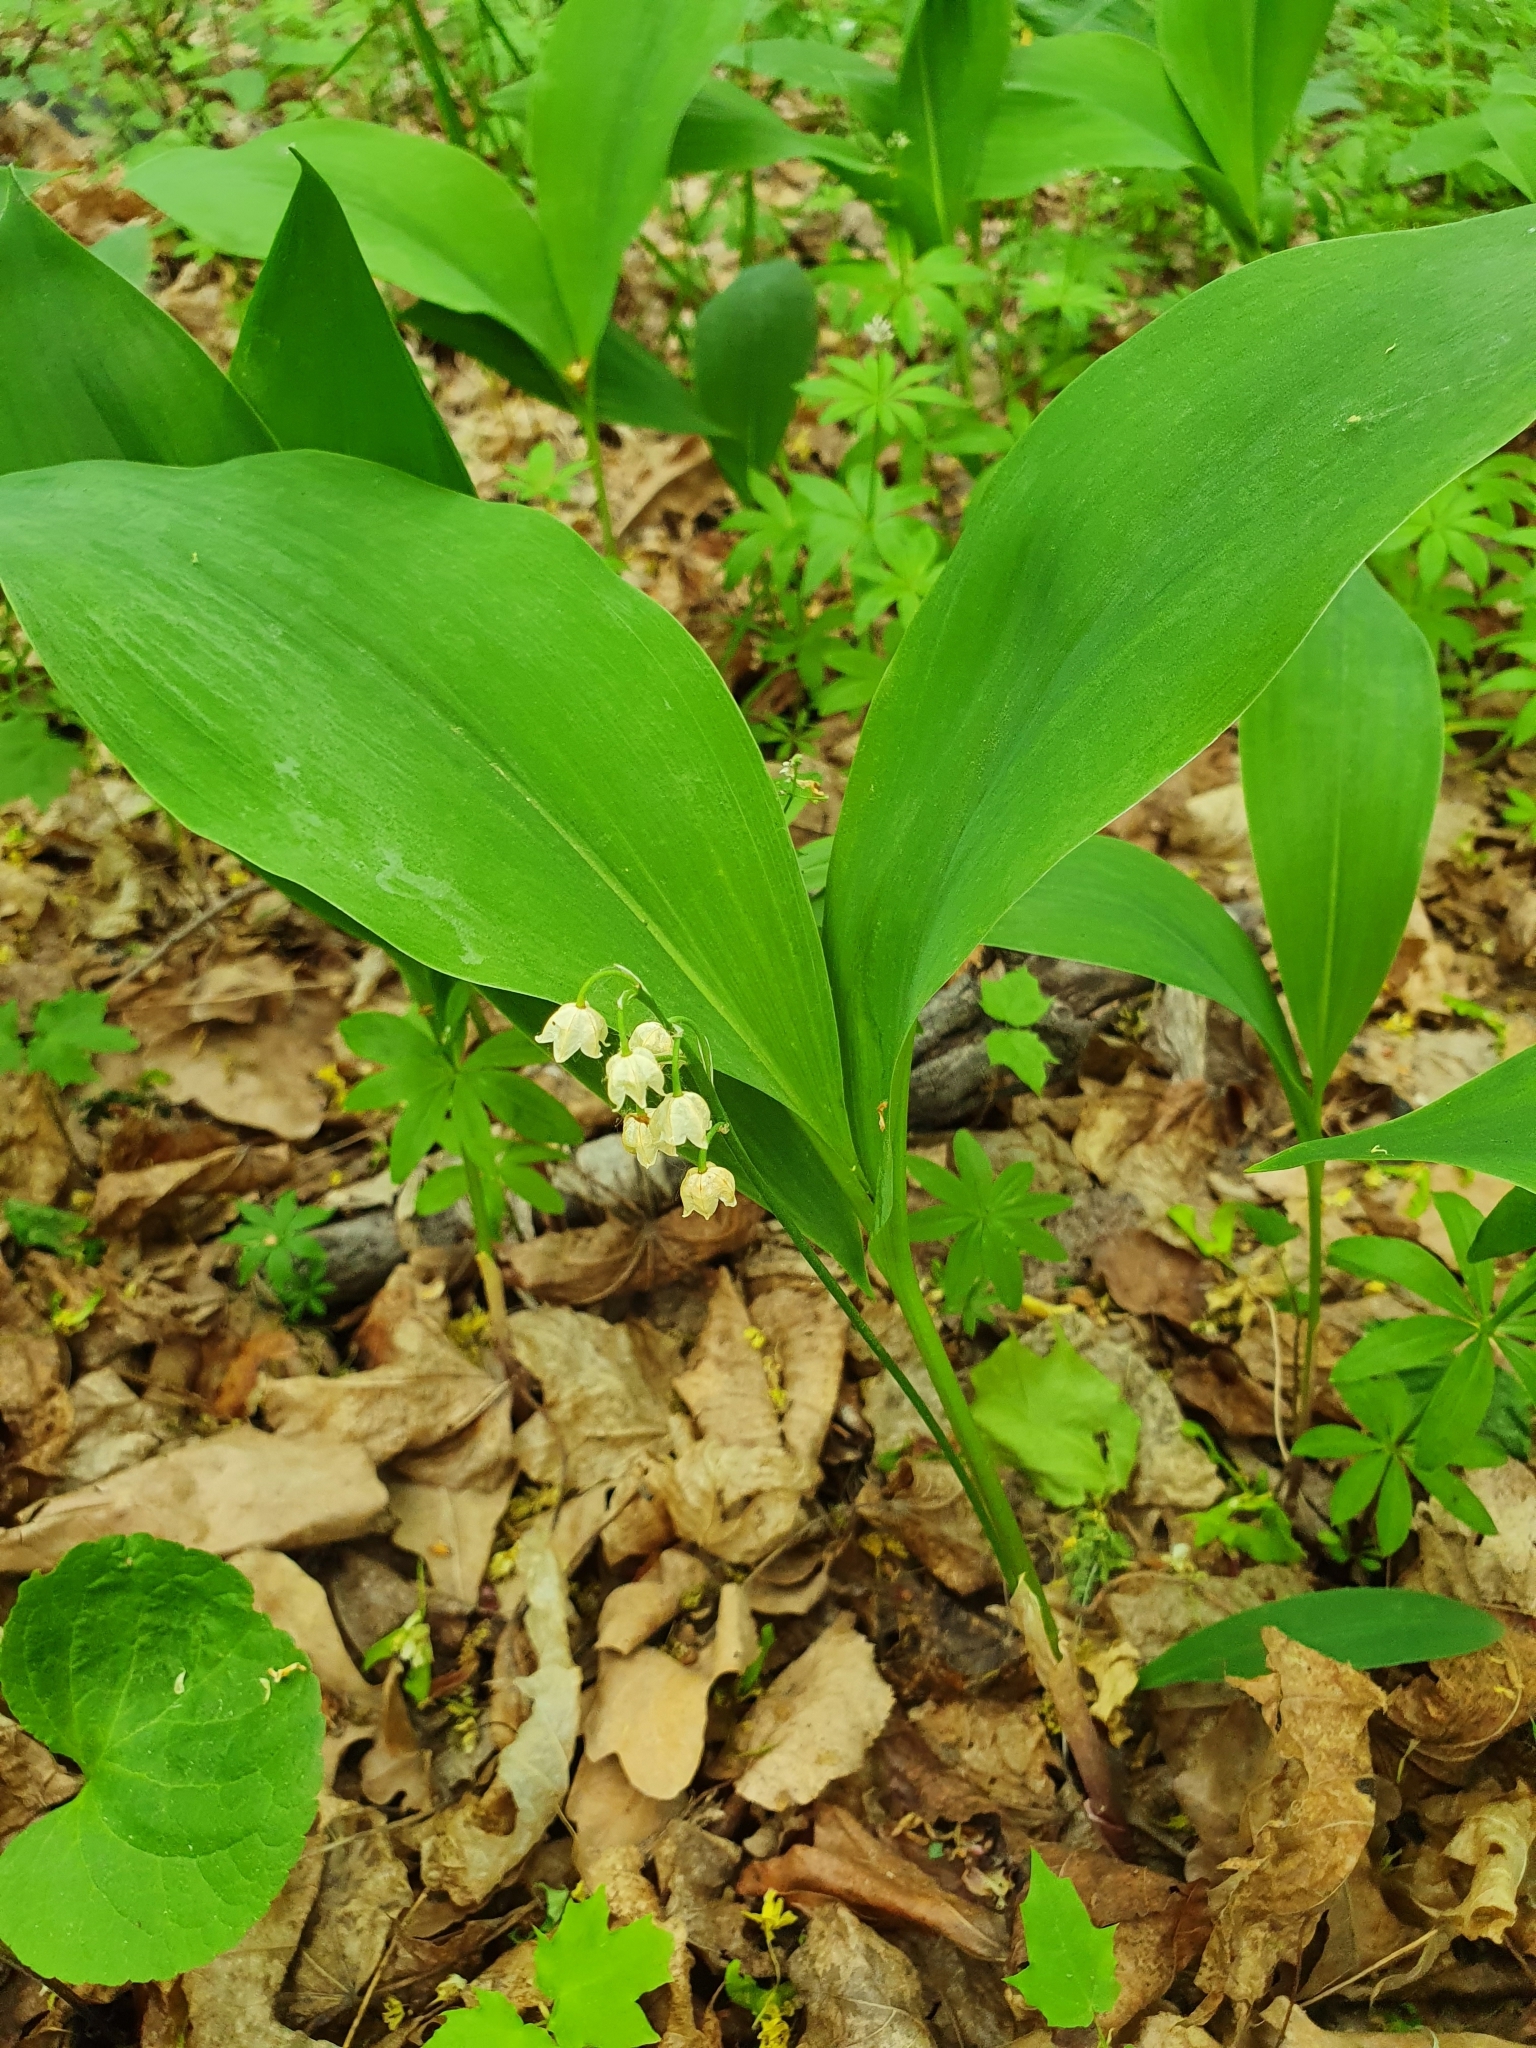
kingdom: Plantae
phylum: Tracheophyta
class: Liliopsida
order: Asparagales
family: Asparagaceae
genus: Convallaria
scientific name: Convallaria majalis
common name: Lily-of-the-valley
